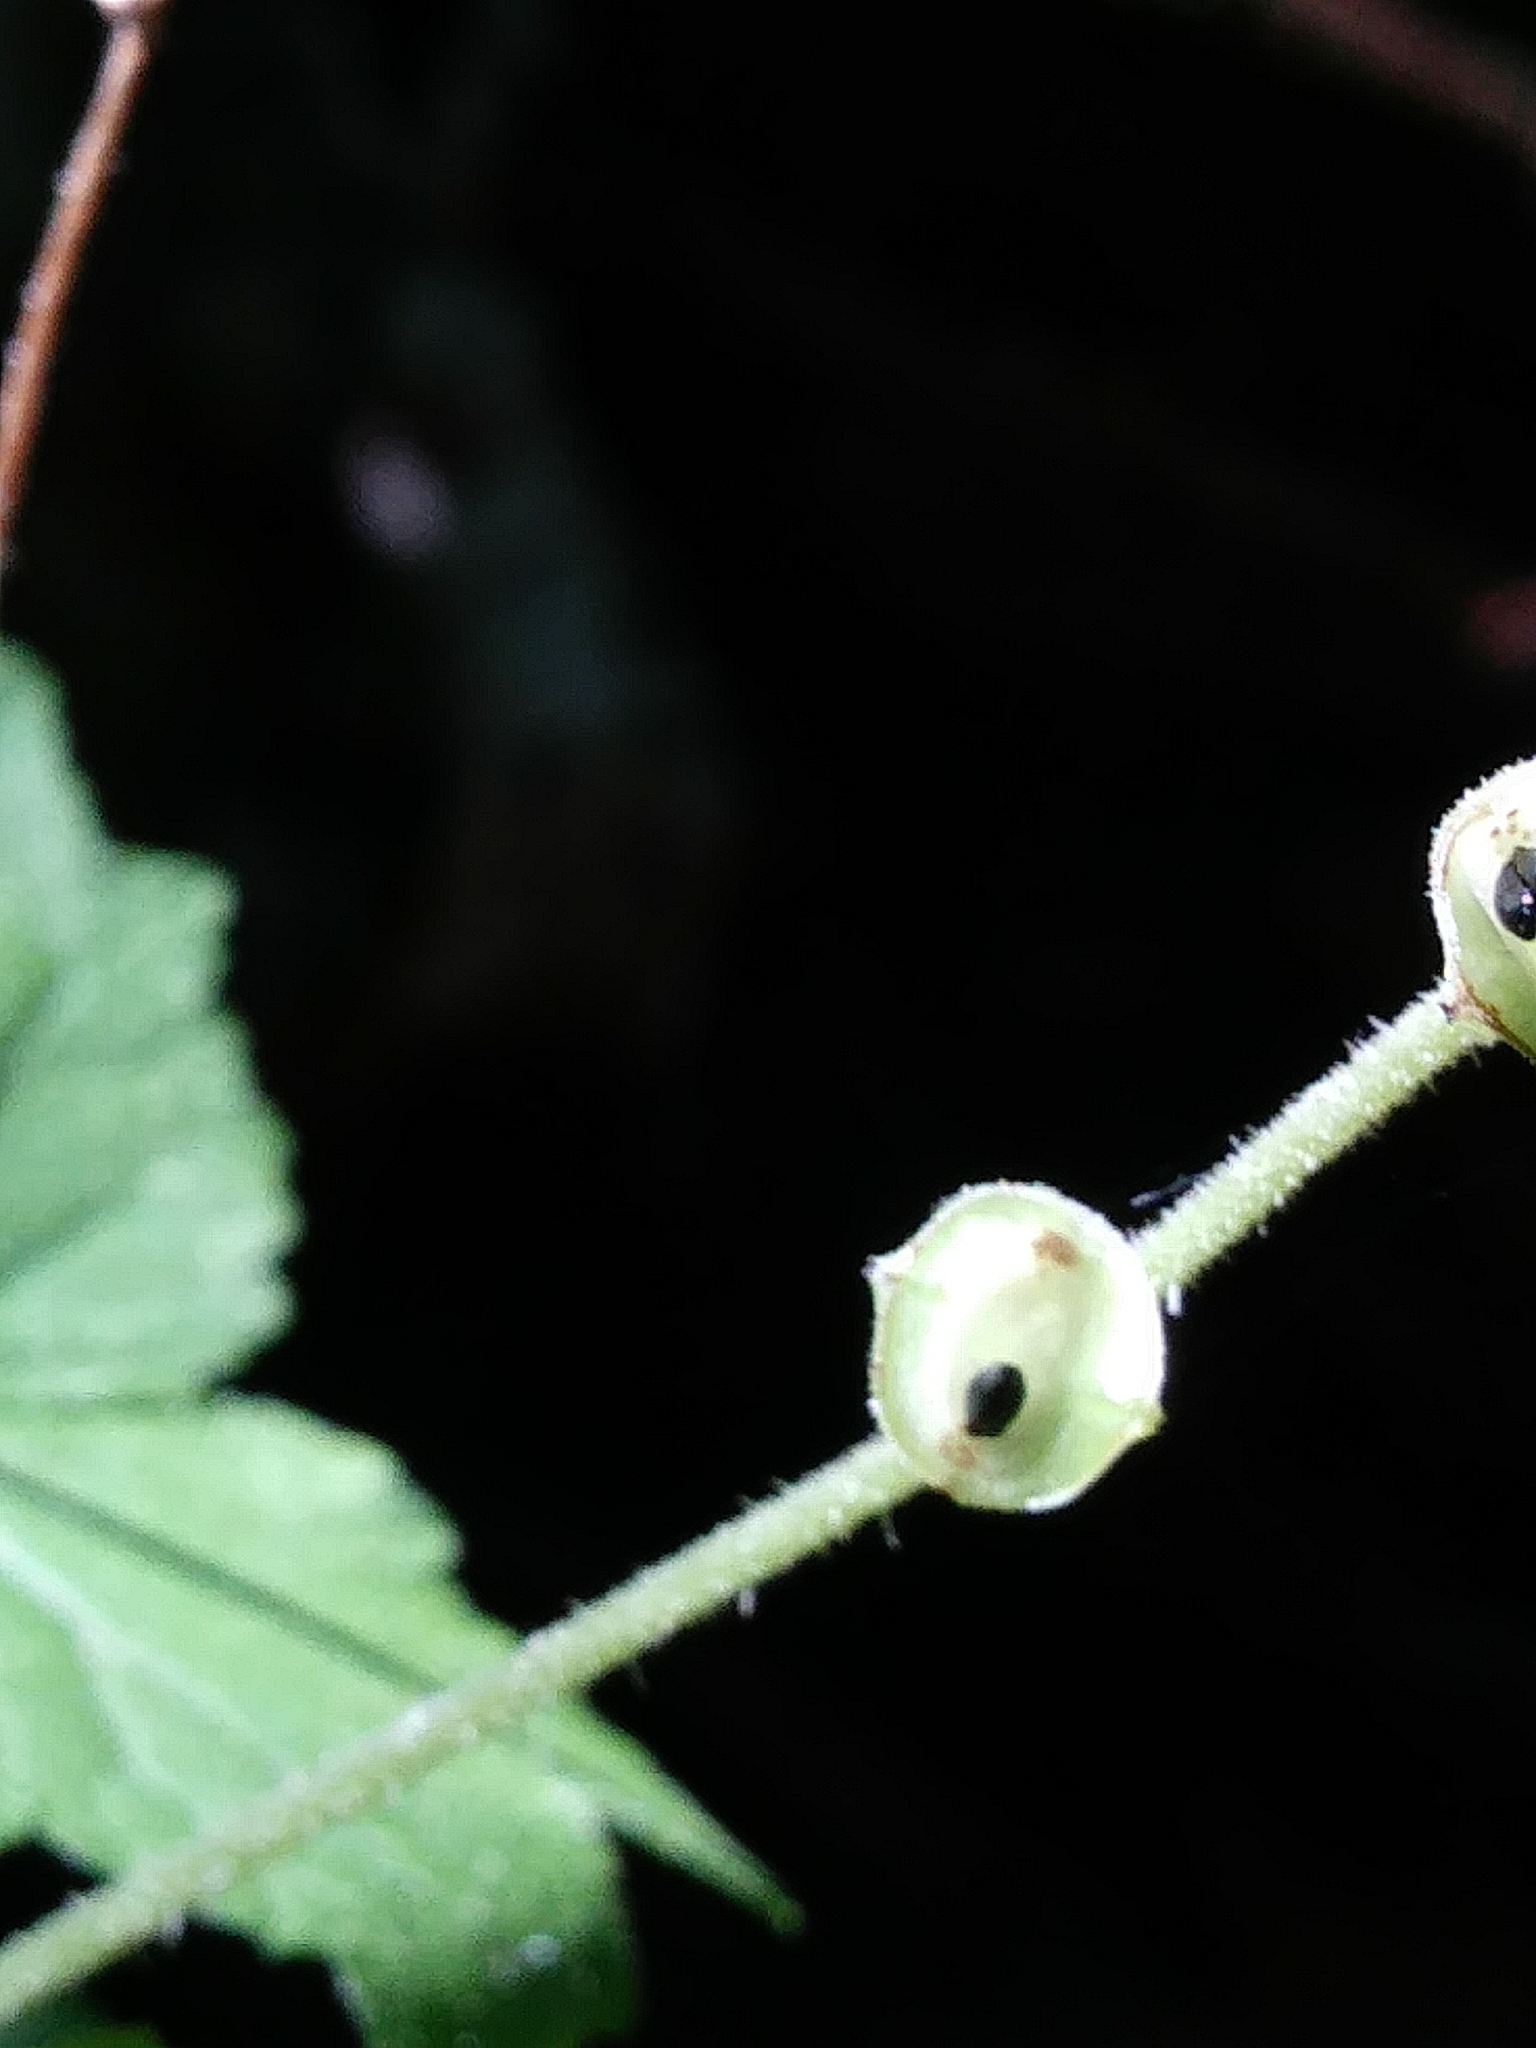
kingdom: Plantae
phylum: Tracheophyta
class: Magnoliopsida
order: Saxifragales
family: Saxifragaceae
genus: Mitella
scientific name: Mitella diphylla
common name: Coolwort
